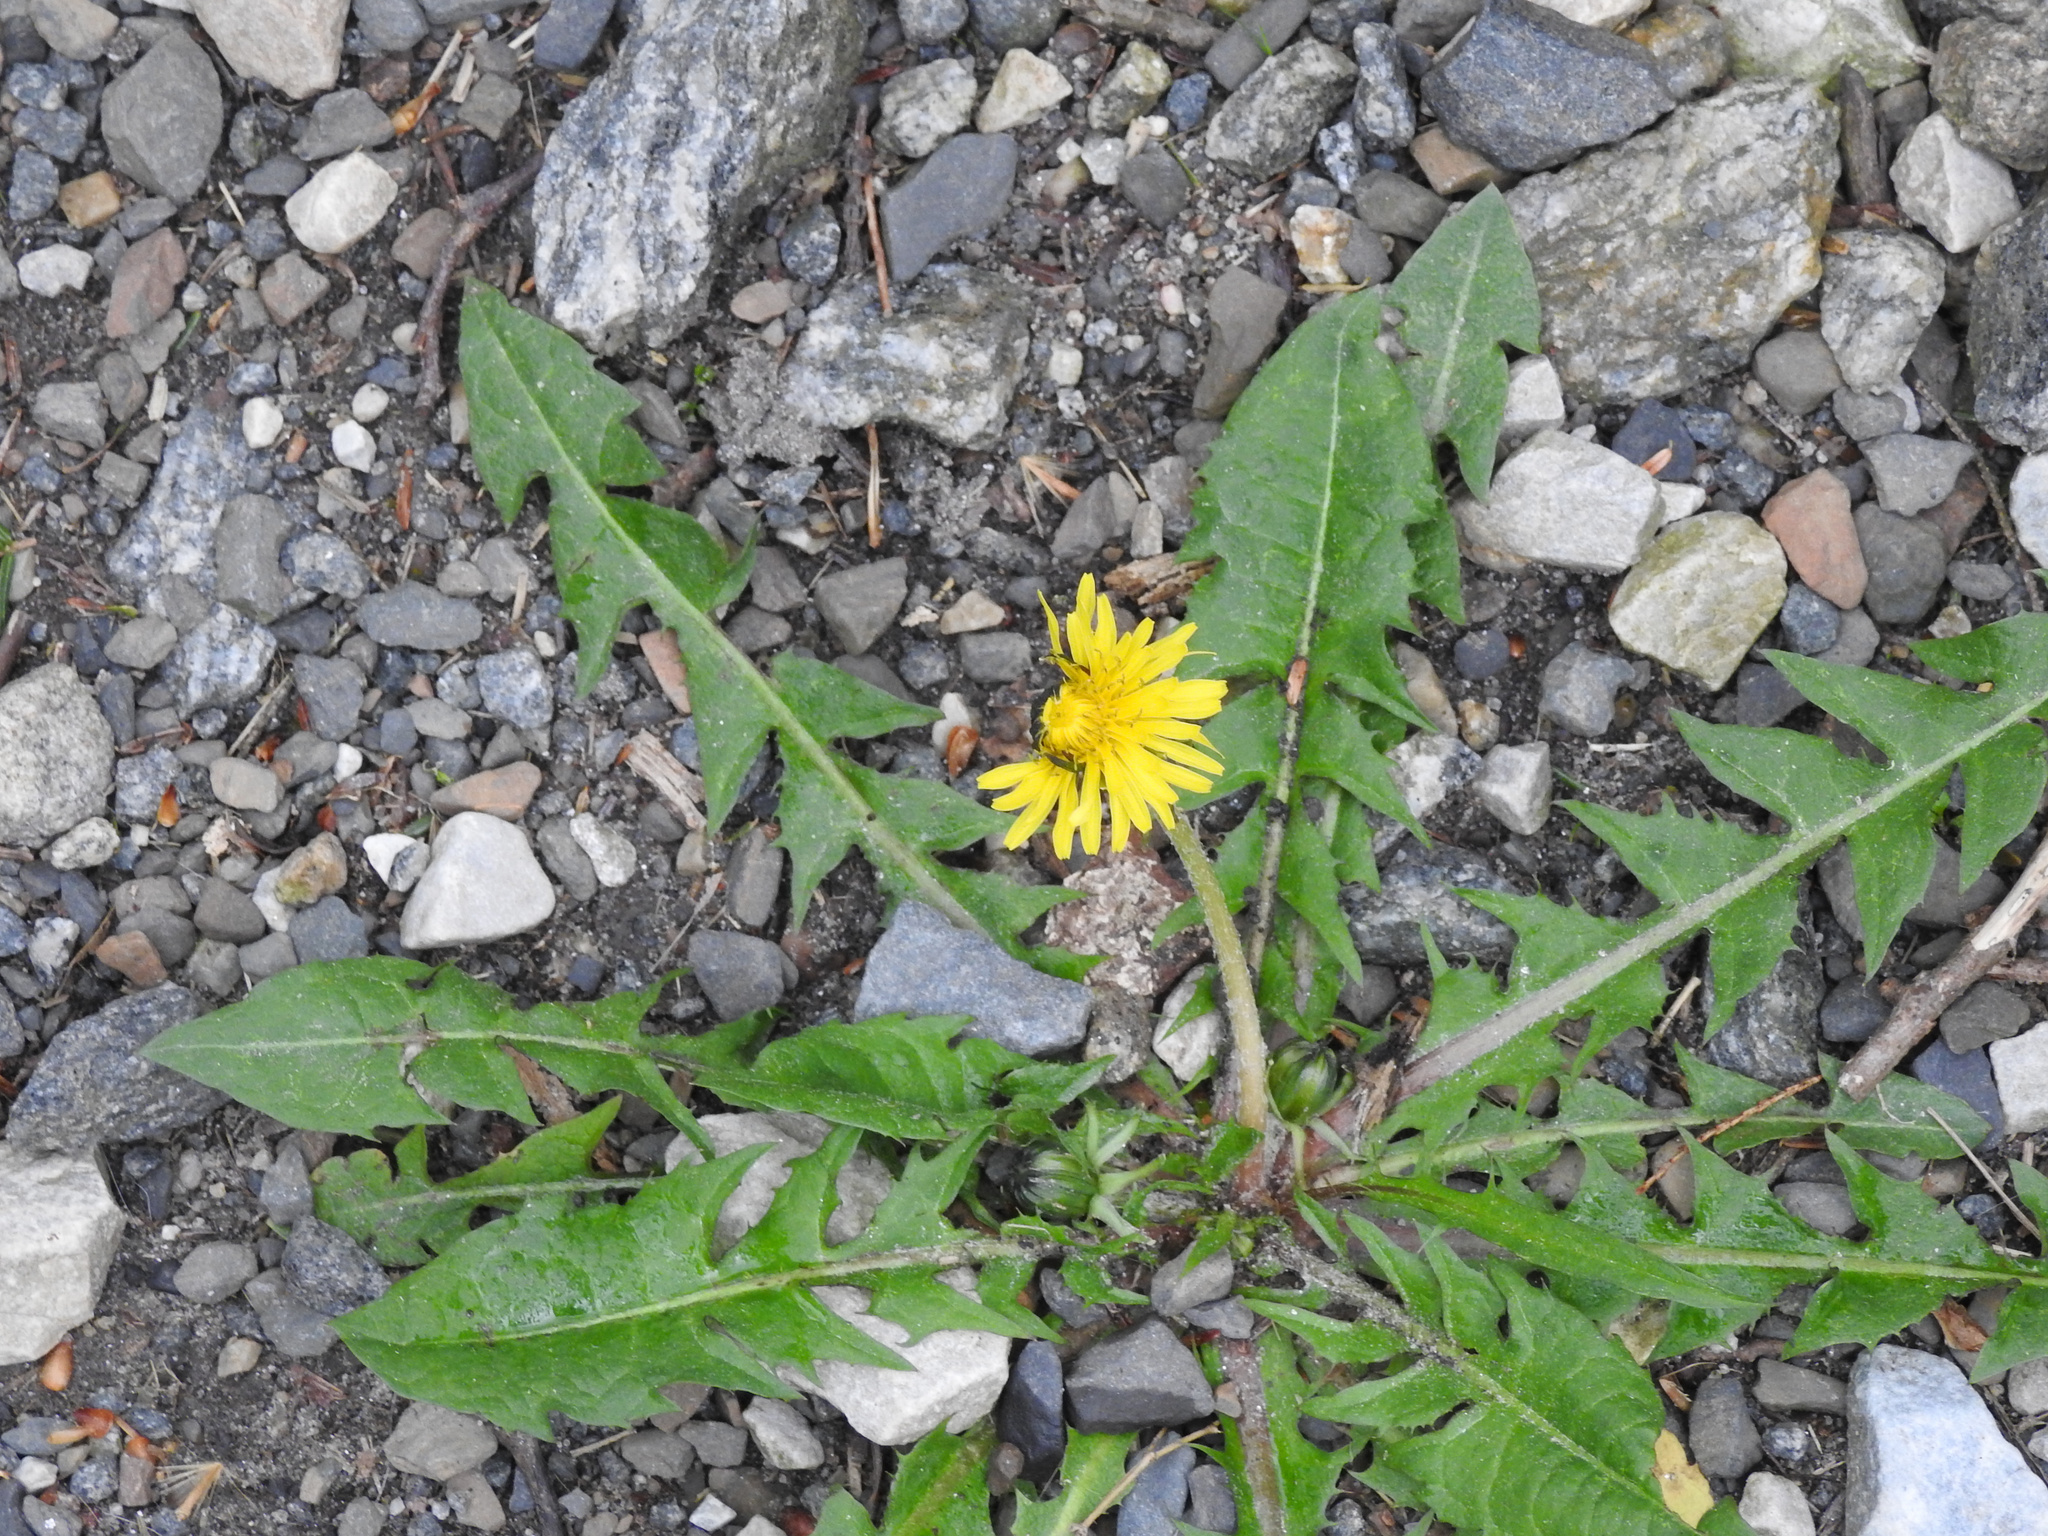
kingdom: Plantae
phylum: Tracheophyta
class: Magnoliopsida
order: Asterales
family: Asteraceae
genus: Taraxacum
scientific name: Taraxacum officinale
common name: Common dandelion
